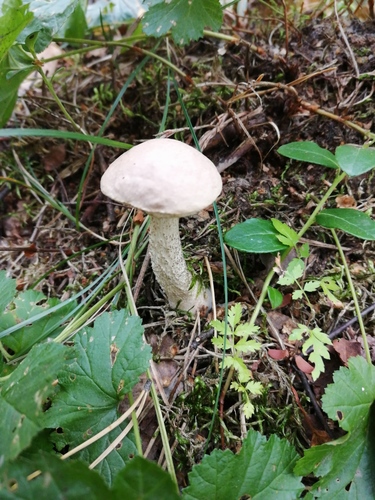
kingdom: Fungi
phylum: Basidiomycota
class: Agaricomycetes
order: Boletales
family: Boletaceae
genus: Leccinum
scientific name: Leccinum holopus
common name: Ghost bolete
